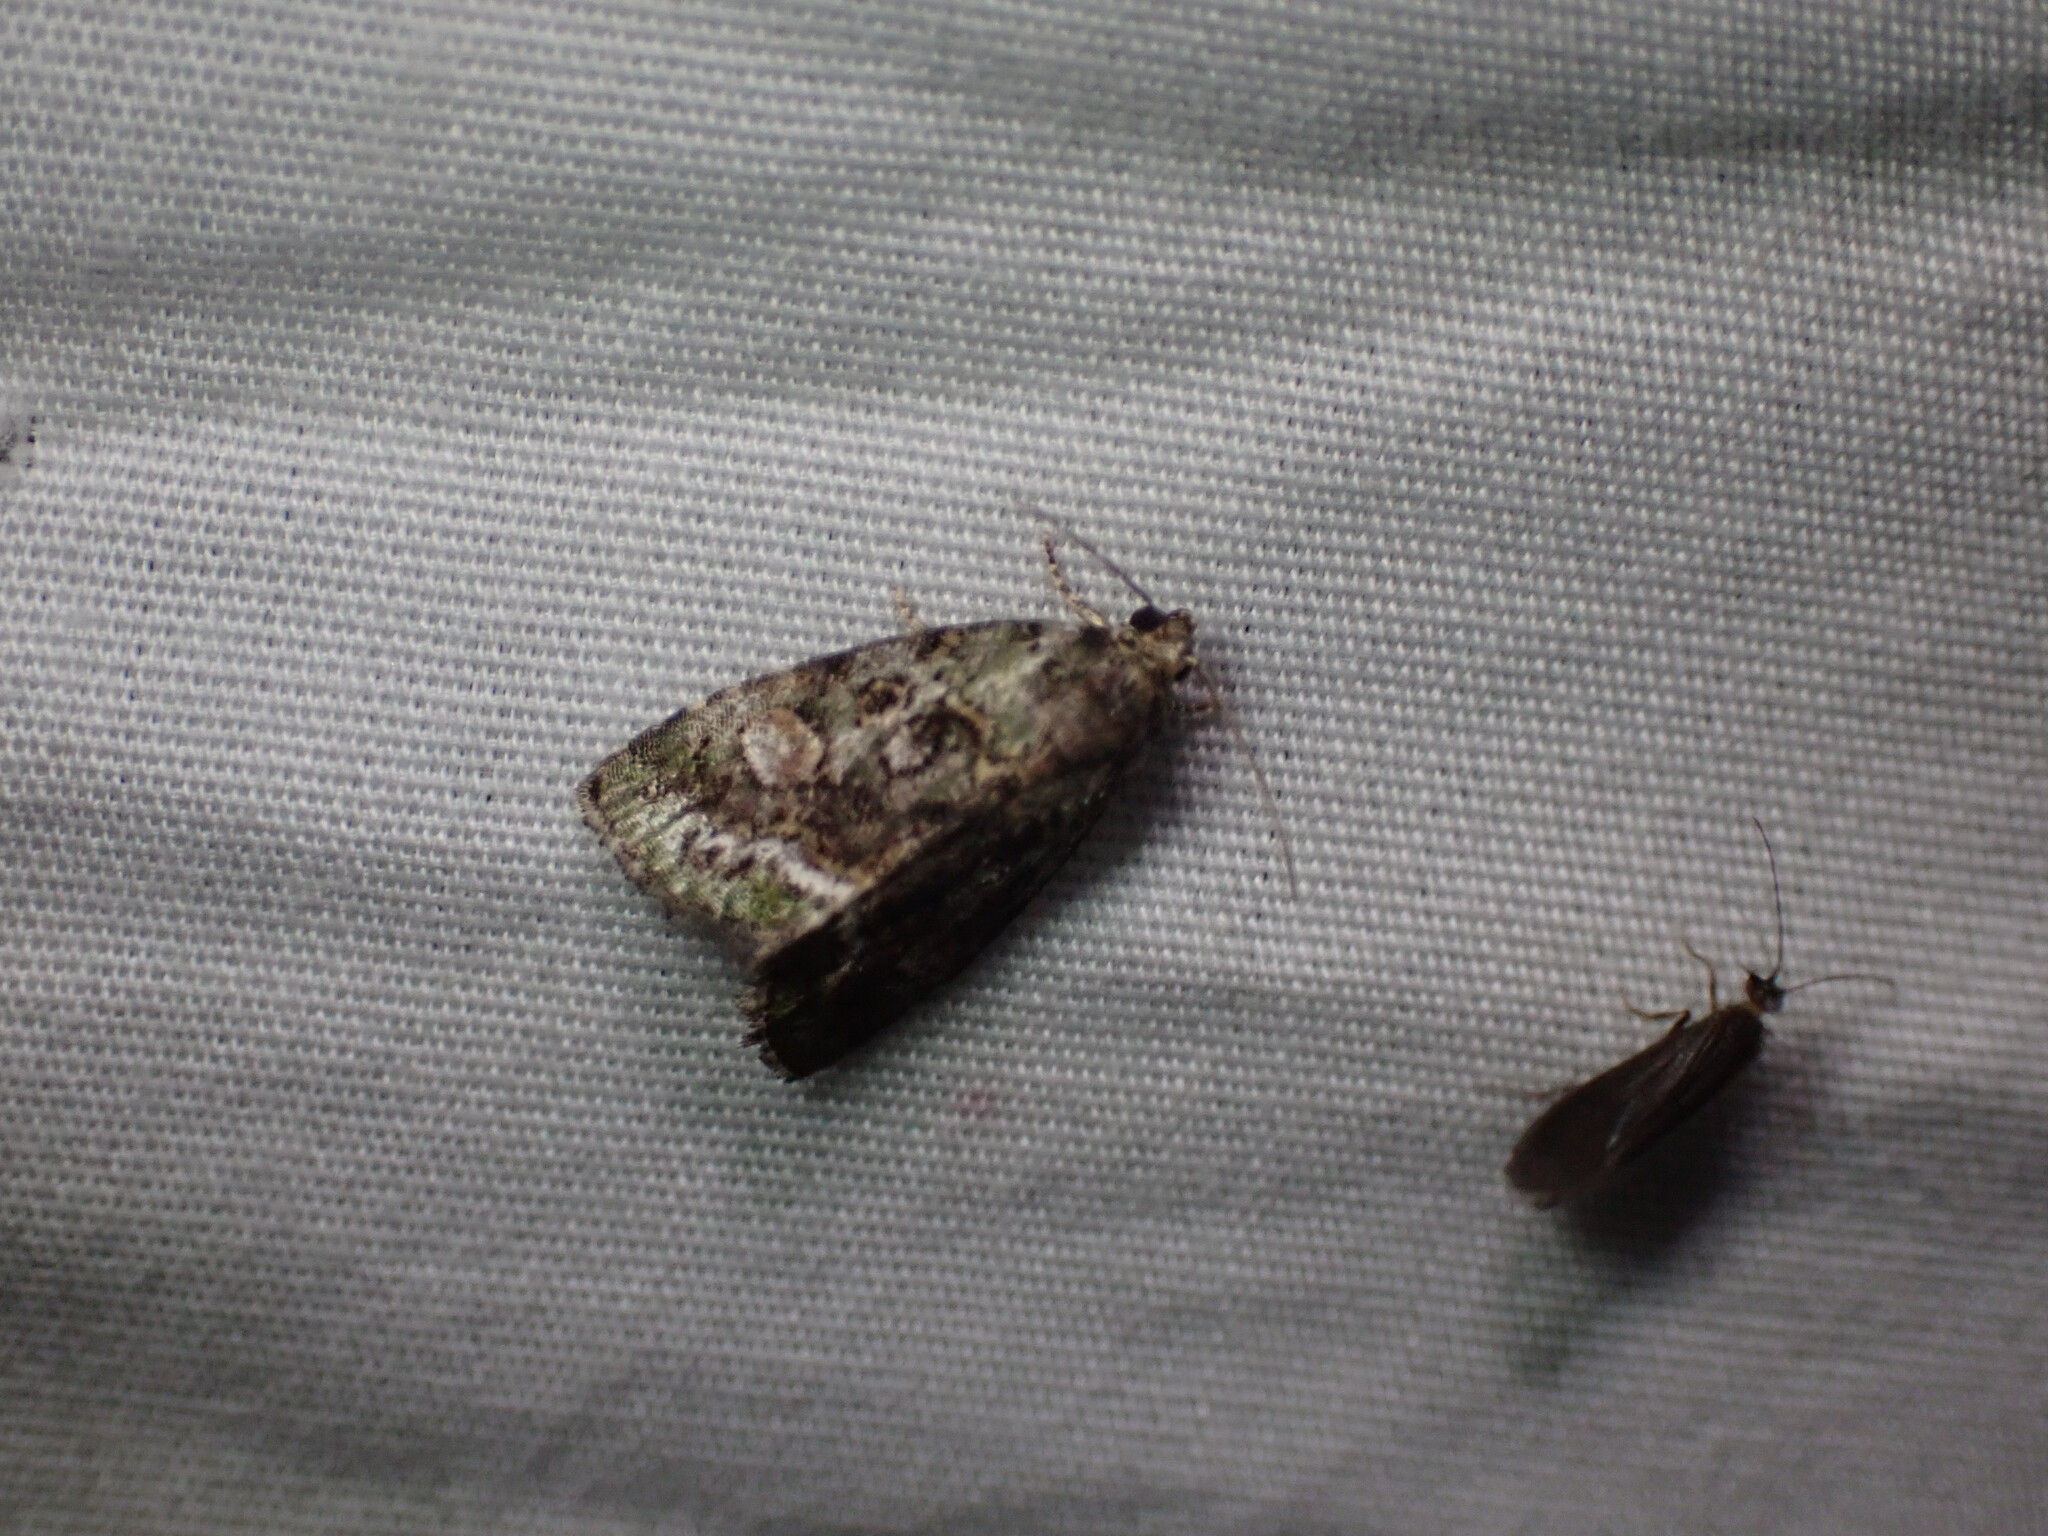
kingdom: Animalia
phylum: Arthropoda
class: Insecta
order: Lepidoptera
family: Noctuidae
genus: Lithacodia
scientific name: Lithacodia musta
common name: Small mossy glyph
